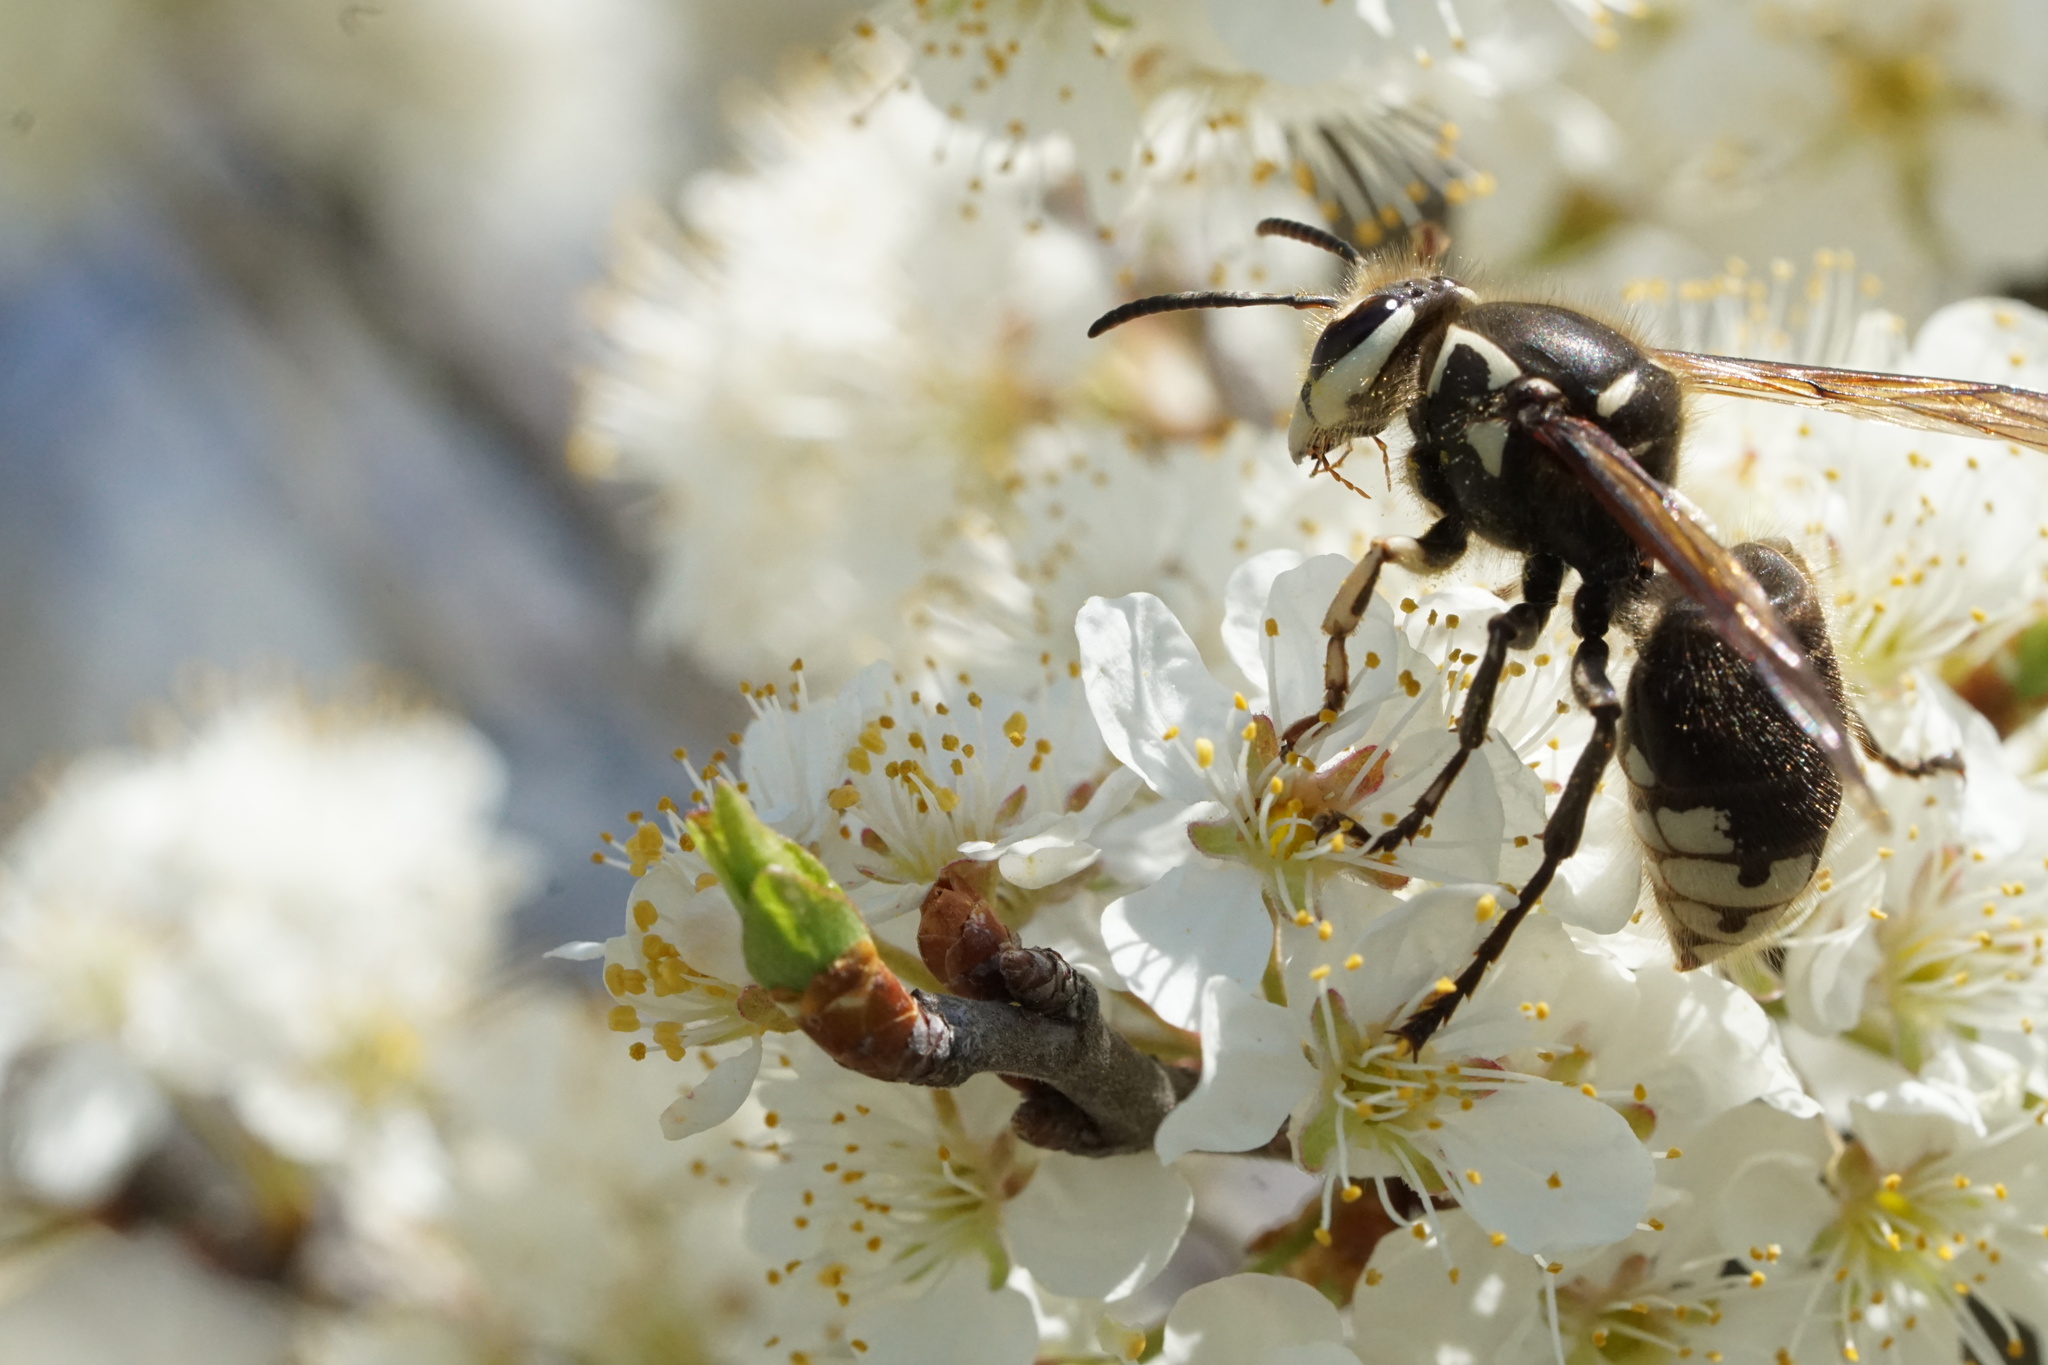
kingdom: Animalia
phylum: Arthropoda
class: Insecta
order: Hymenoptera
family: Vespidae
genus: Dolichovespula
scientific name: Dolichovespula maculata
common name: Bald-faced hornet
